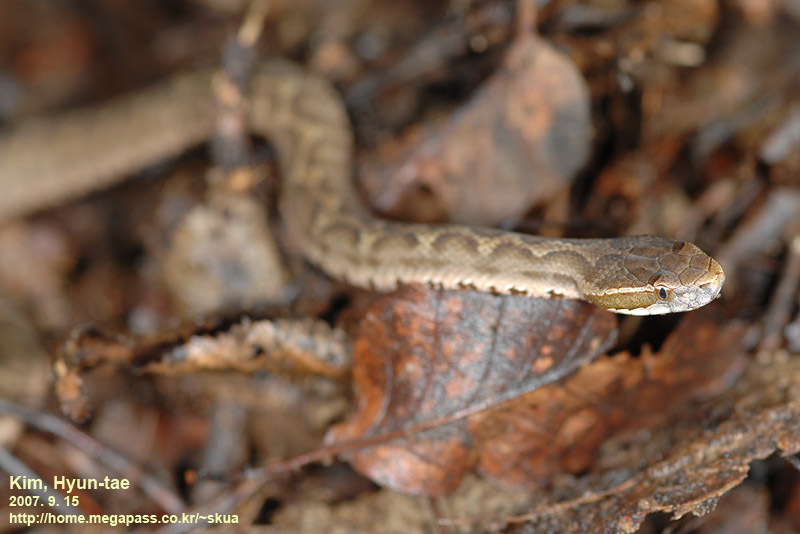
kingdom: Animalia
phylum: Chordata
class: Squamata
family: Viperidae
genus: Gloydius
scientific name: Gloydius ussuriensis
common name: Ussuri mamushi
